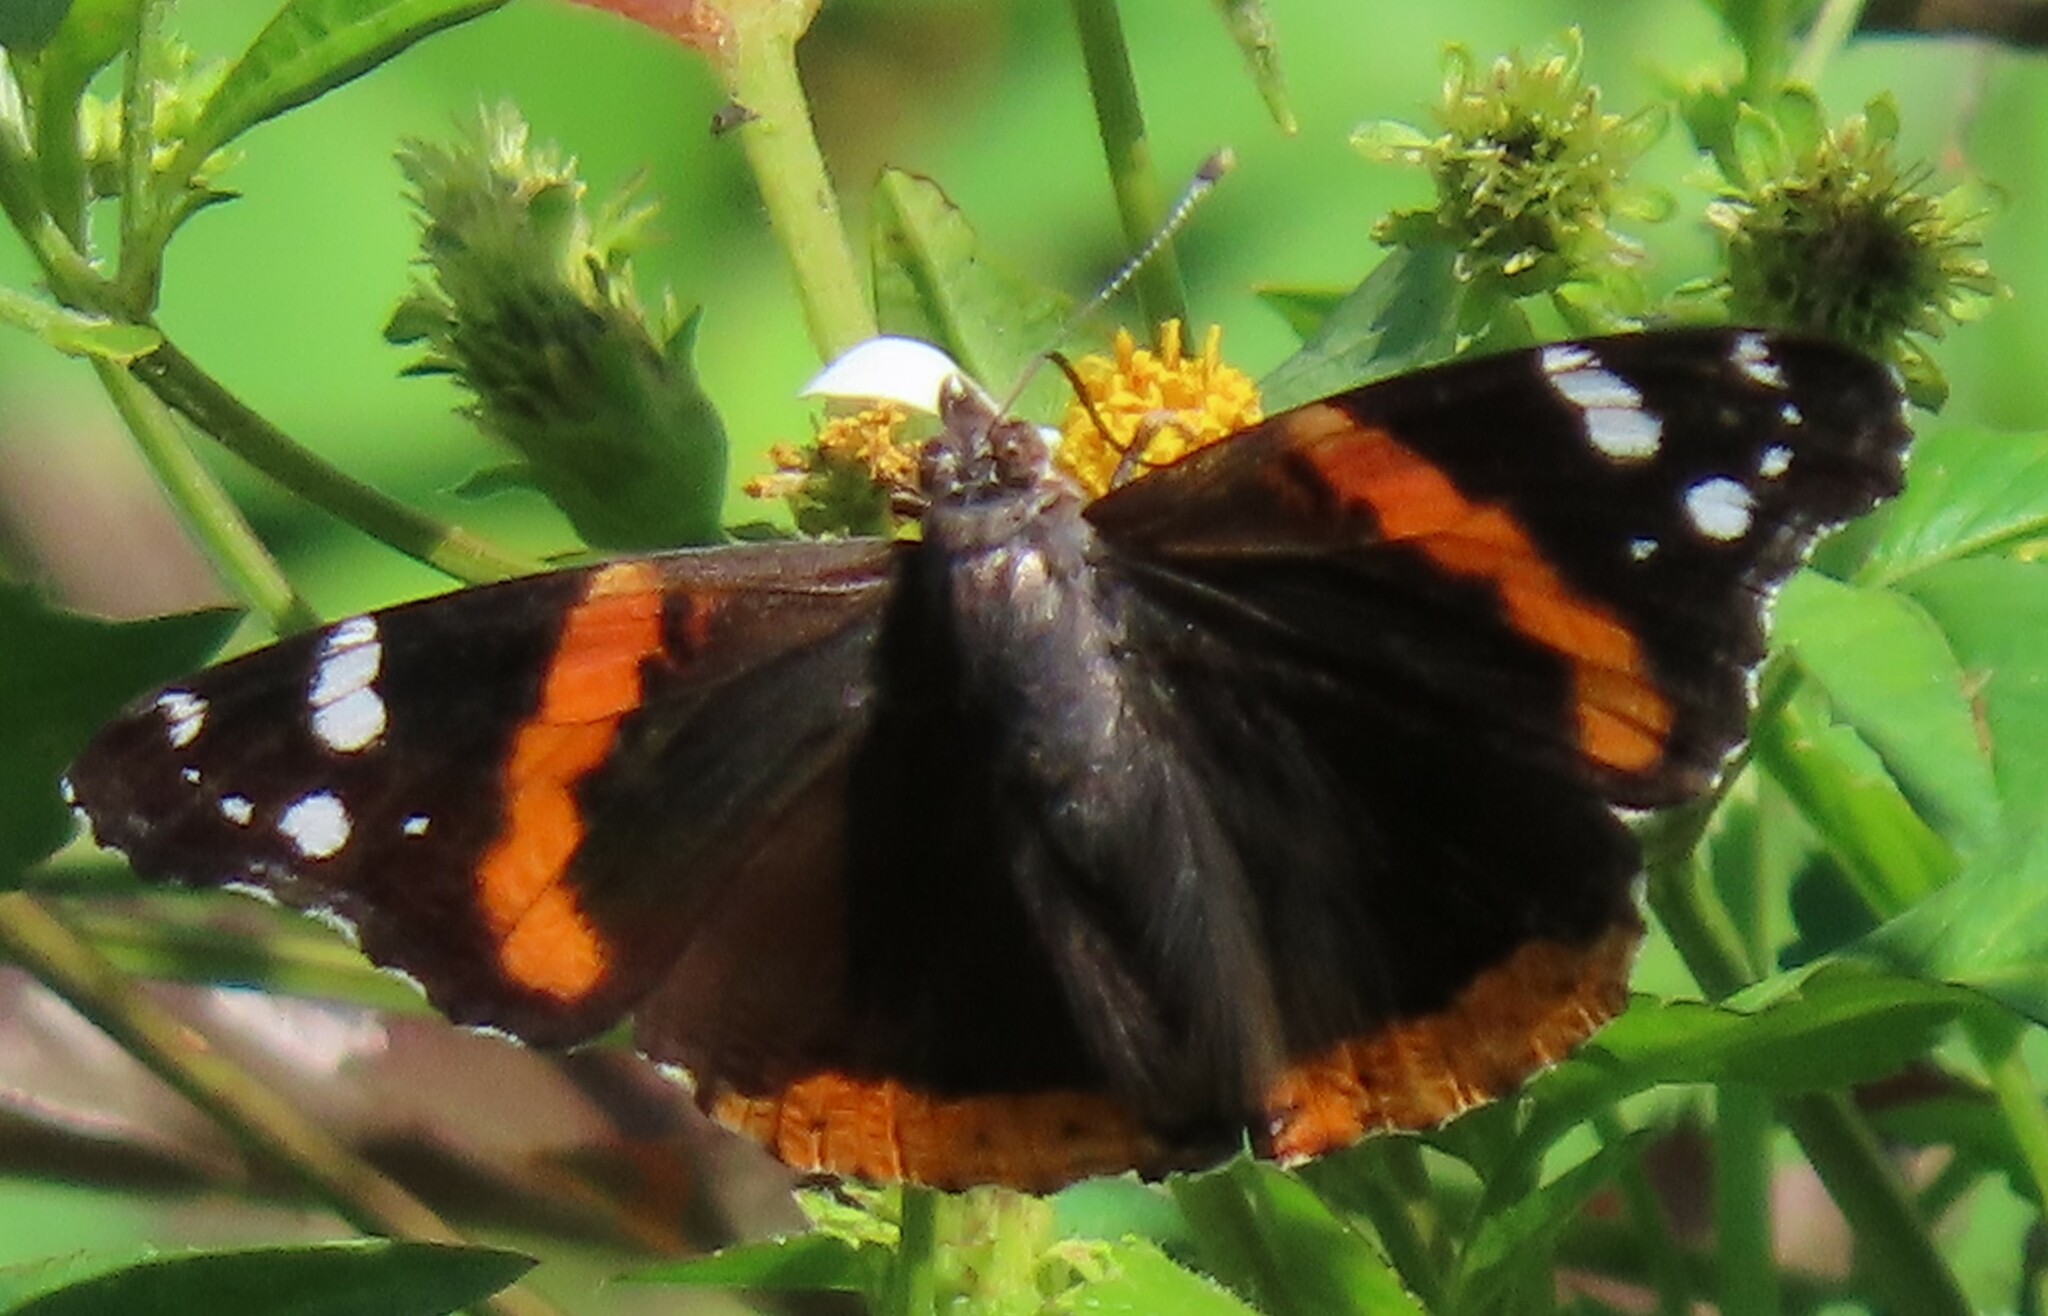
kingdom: Animalia
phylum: Arthropoda
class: Insecta
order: Lepidoptera
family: Nymphalidae
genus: Vanessa
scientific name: Vanessa atalanta
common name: Red admiral
